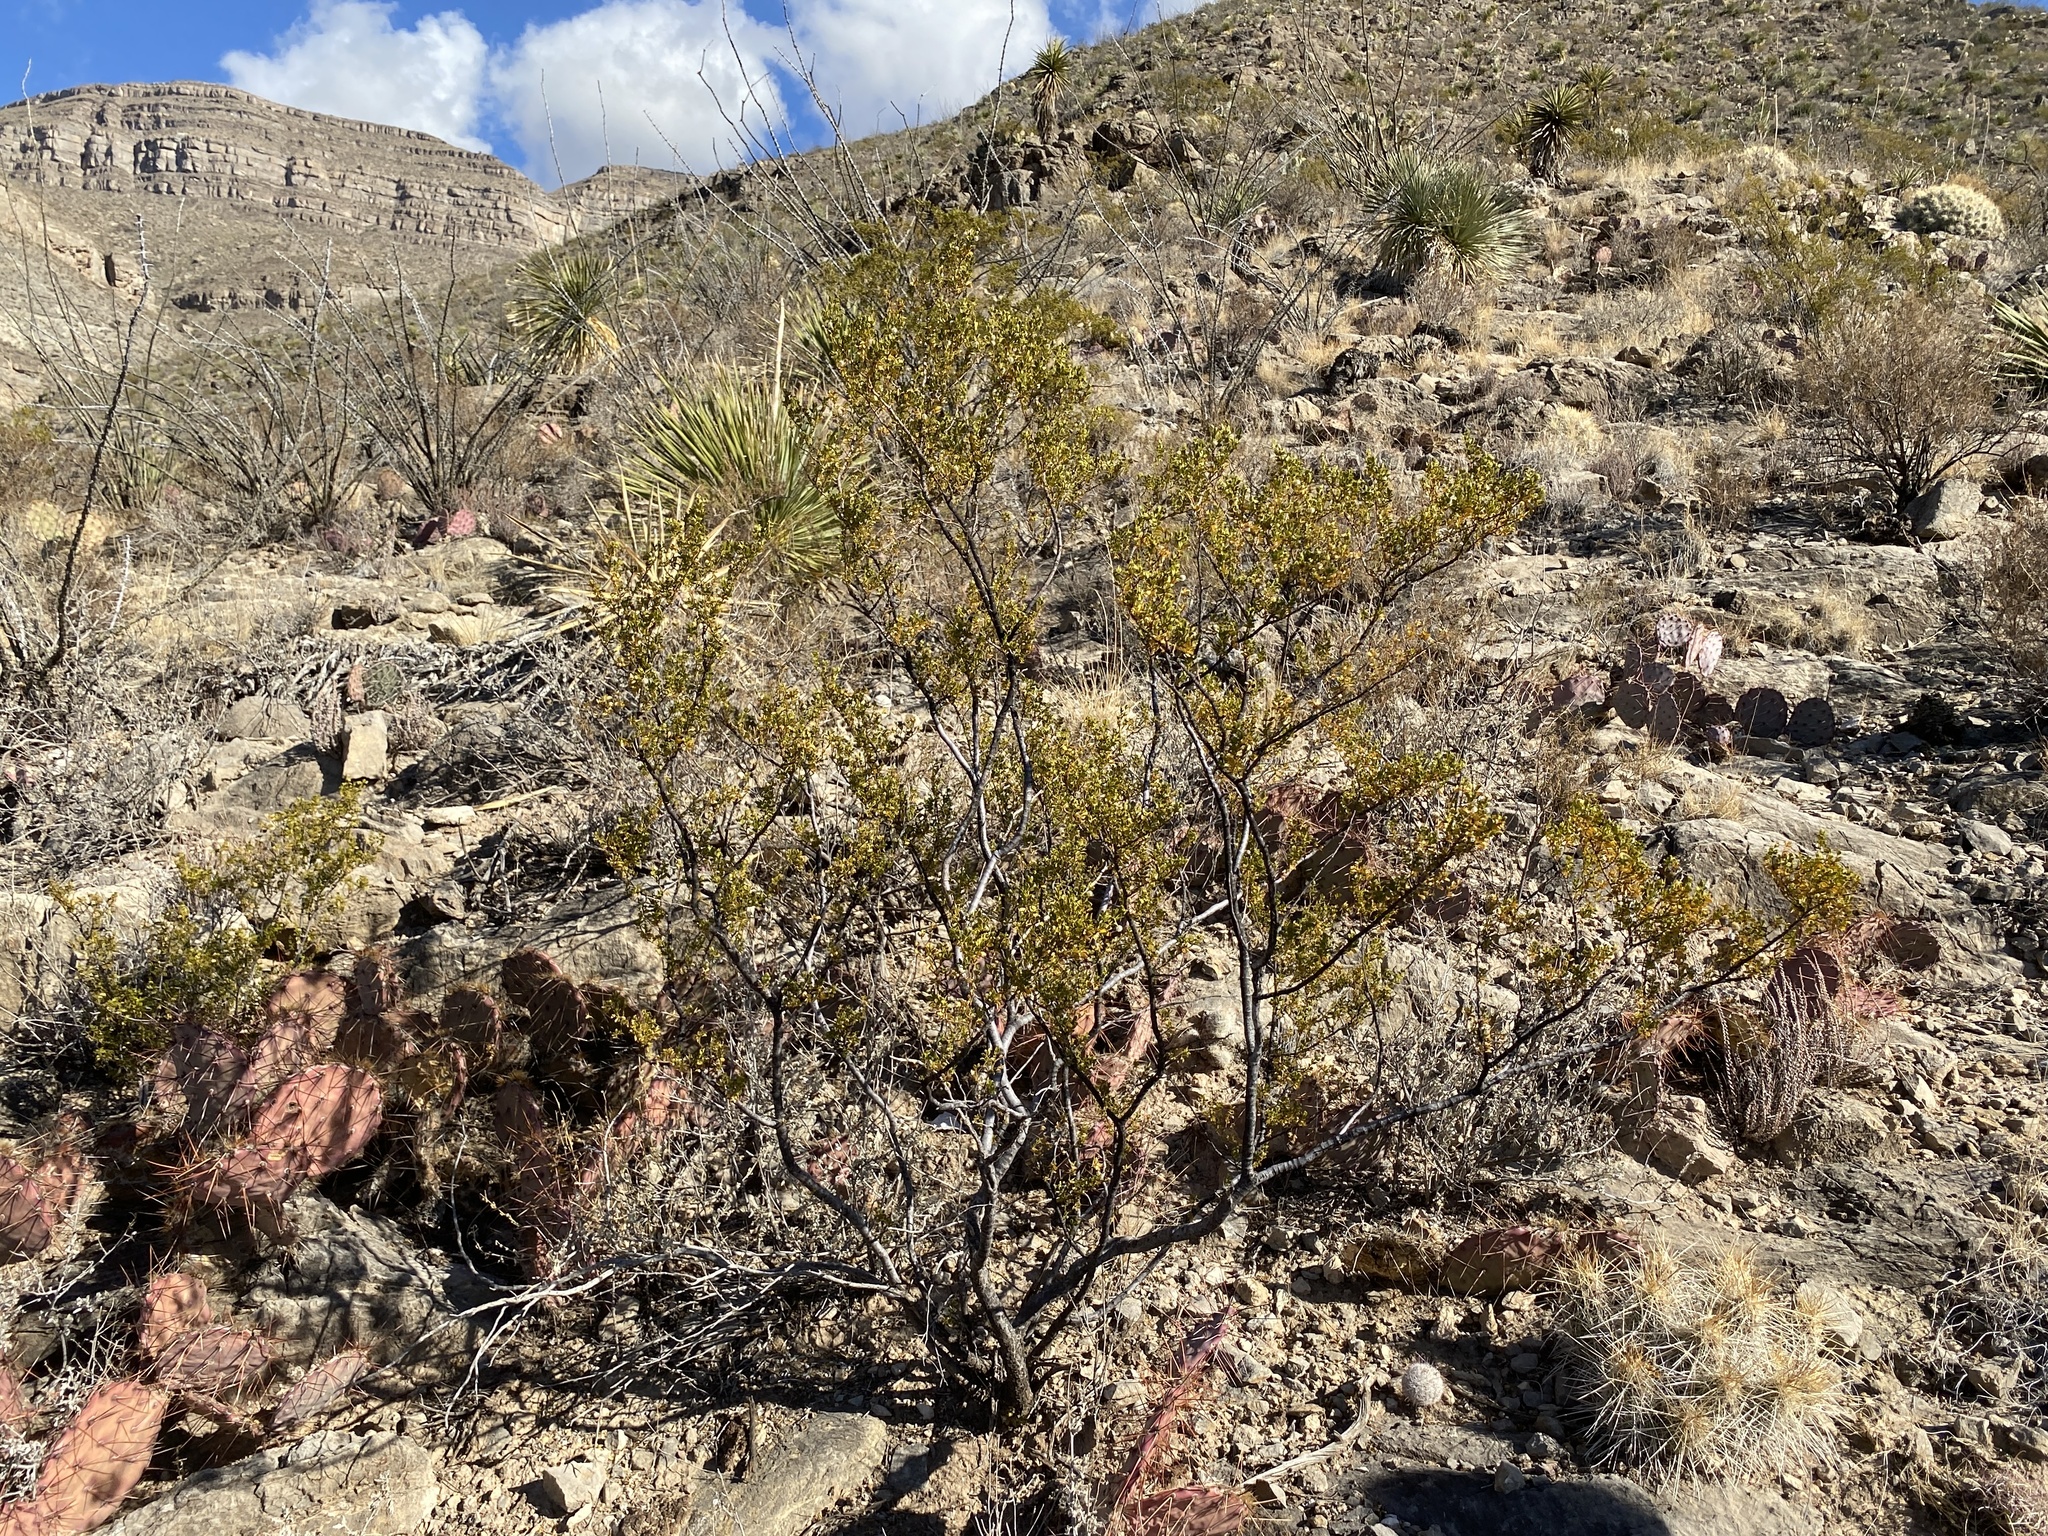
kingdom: Plantae
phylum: Tracheophyta
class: Magnoliopsida
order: Zygophyllales
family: Zygophyllaceae
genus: Larrea
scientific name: Larrea tridentata
